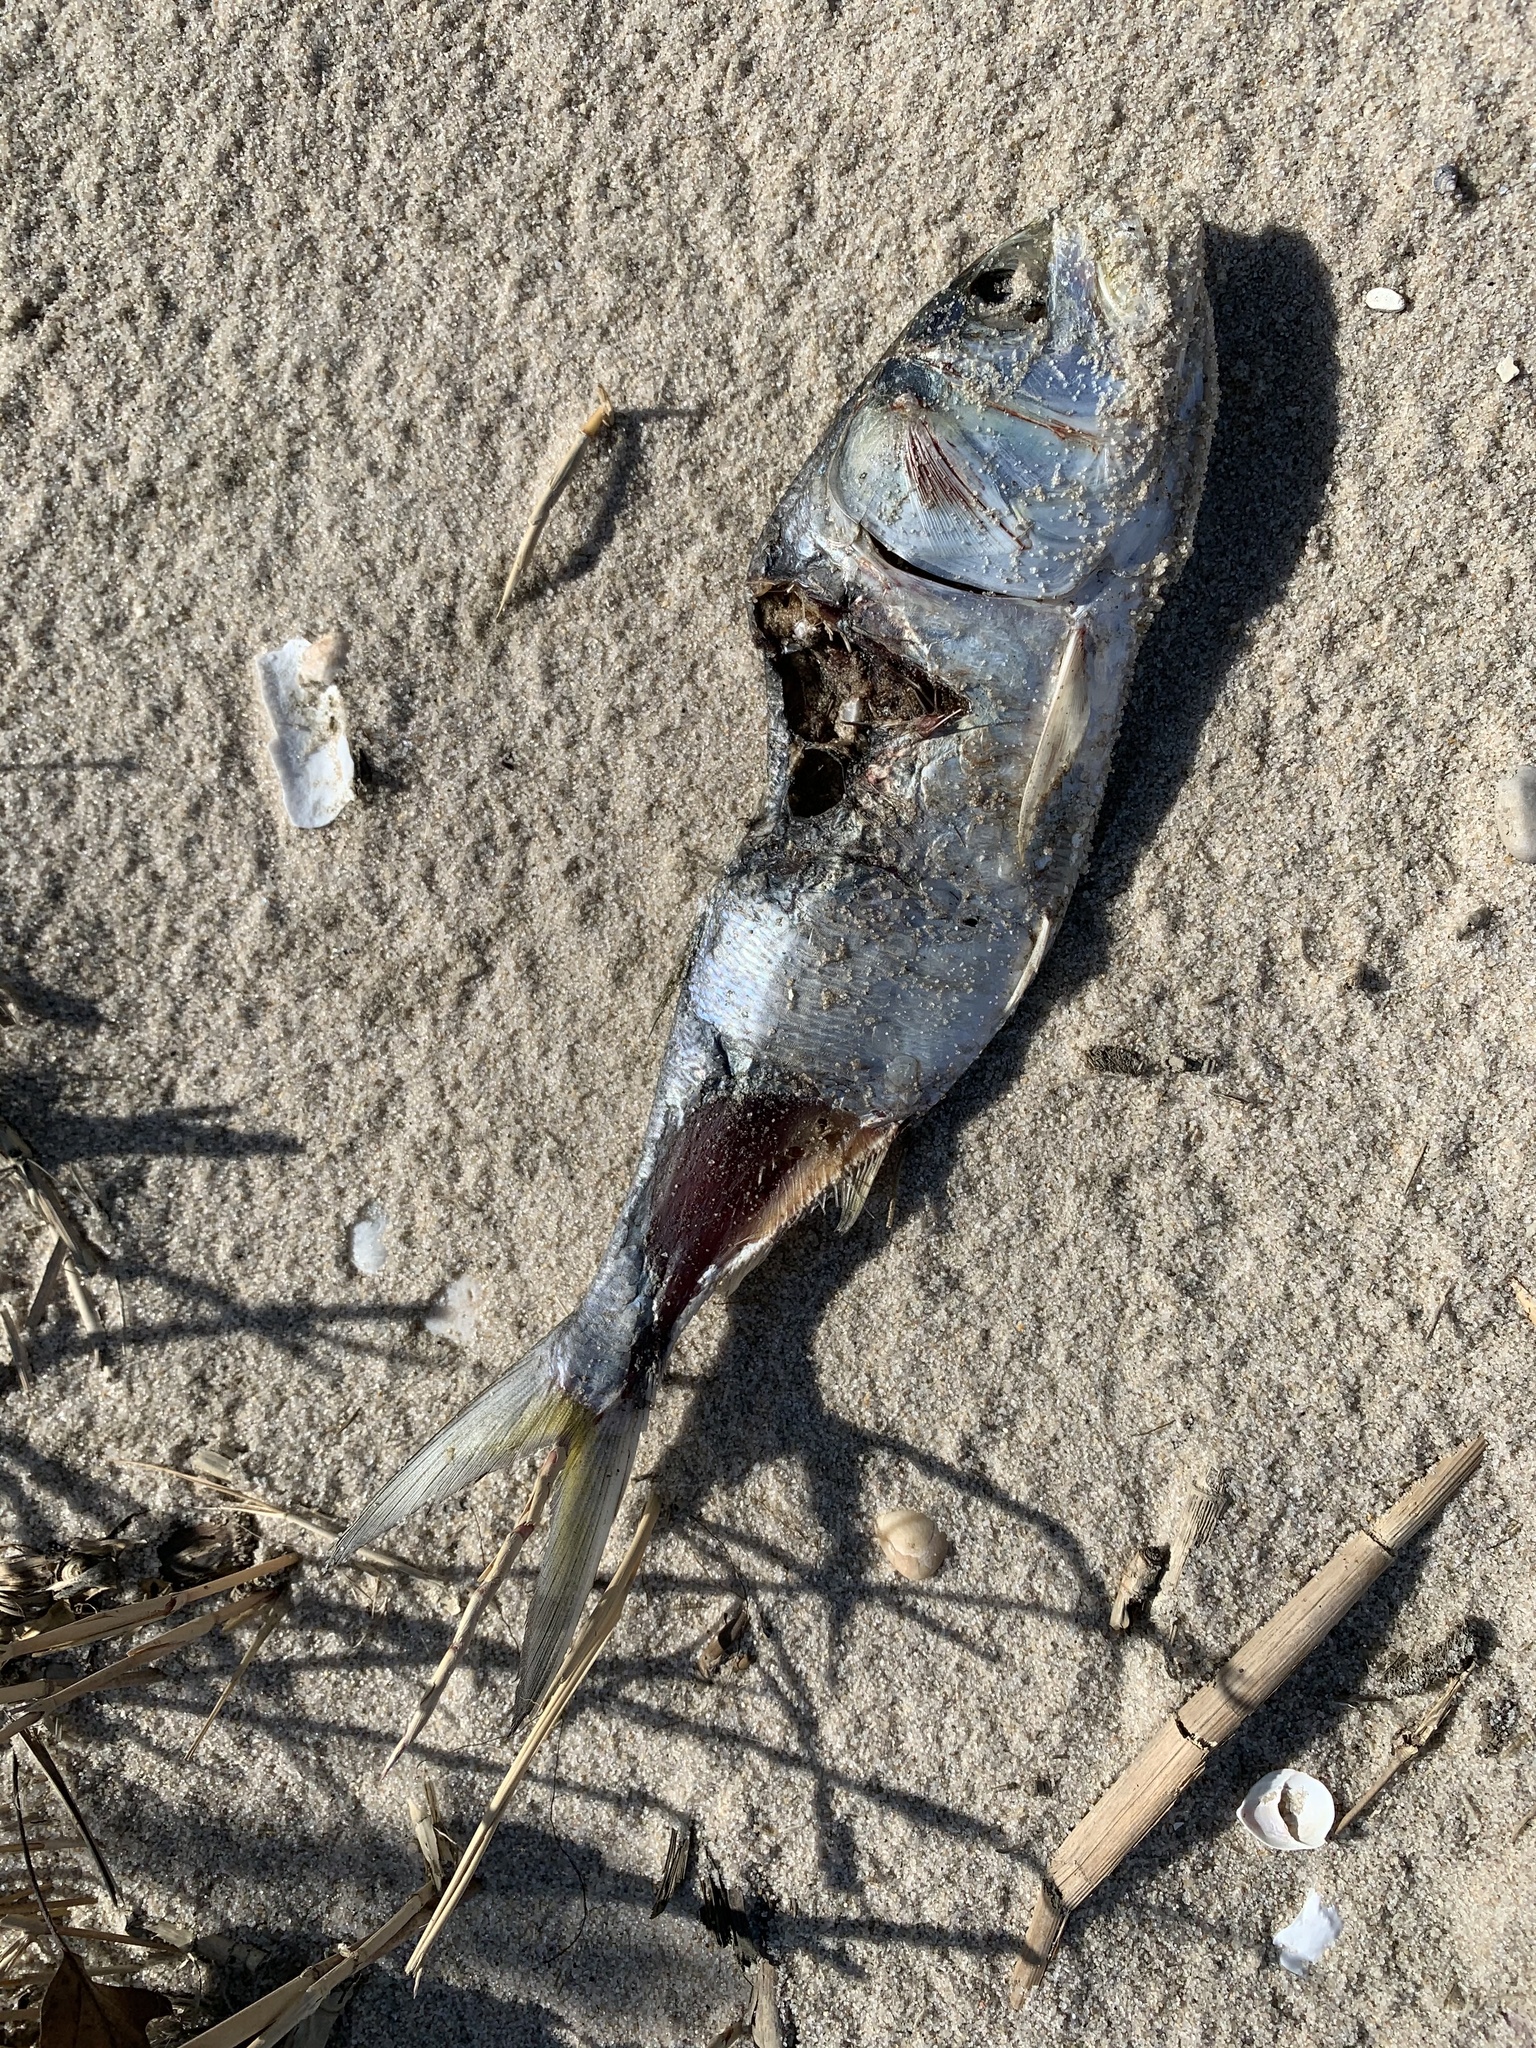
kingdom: Animalia
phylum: Chordata
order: Clupeiformes
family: Clupeidae
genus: Brevoortia
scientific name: Brevoortia tyrannus
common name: Atlantic menhaden
